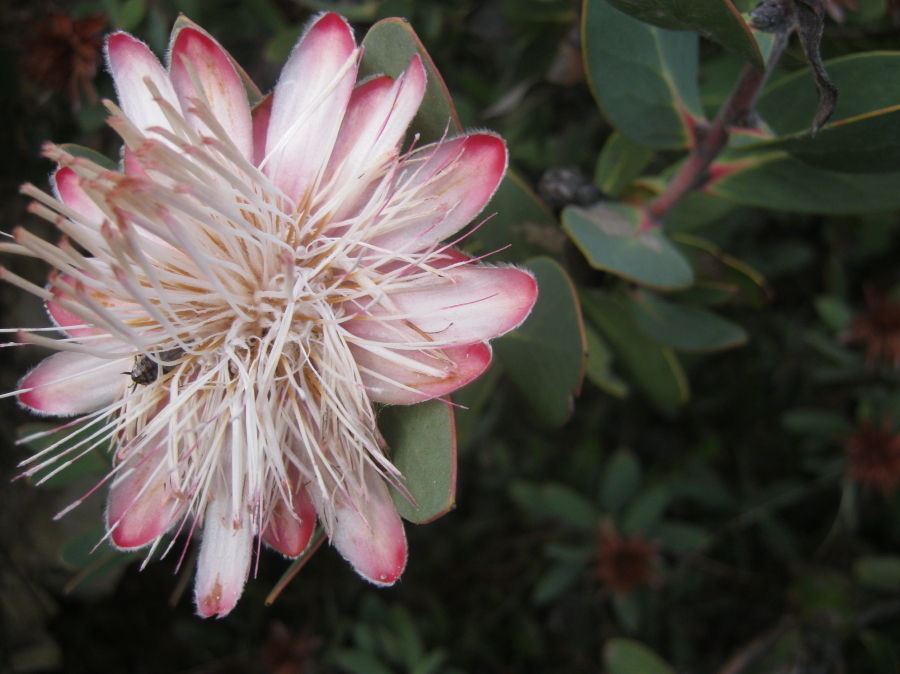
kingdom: Plantae
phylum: Tracheophyta
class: Magnoliopsida
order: Proteales
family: Proteaceae
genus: Protea
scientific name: Protea punctata
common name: Water sugarbush
